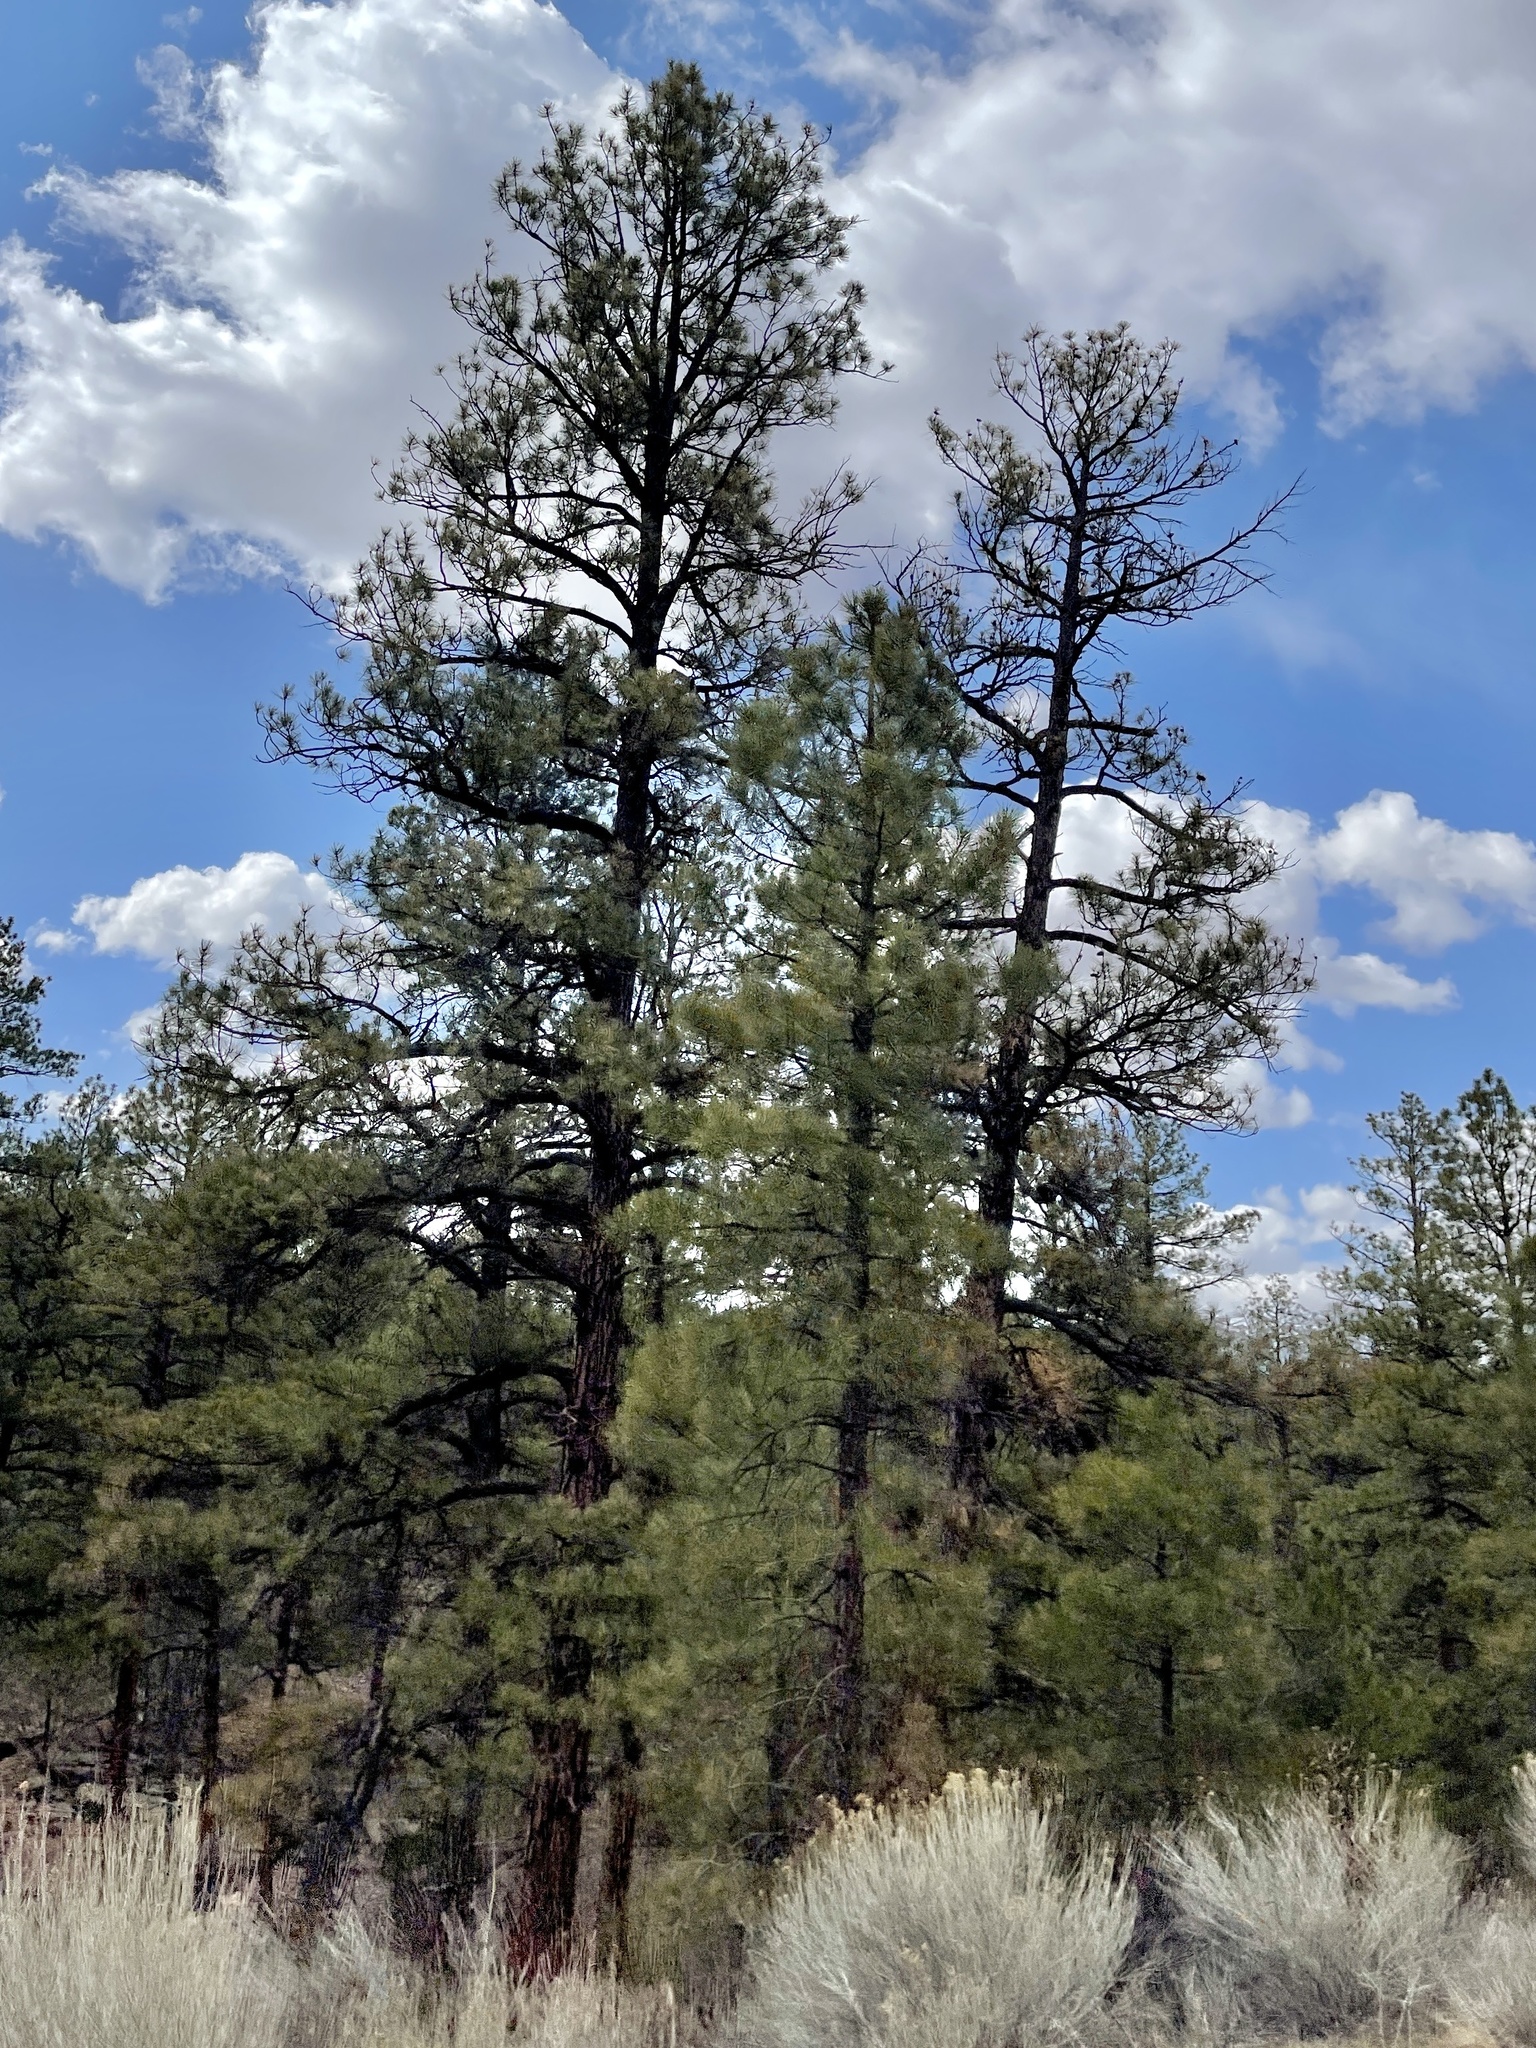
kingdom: Plantae
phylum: Tracheophyta
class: Pinopsida
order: Pinales
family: Pinaceae
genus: Pinus
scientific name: Pinus ponderosa
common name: Western yellow-pine
